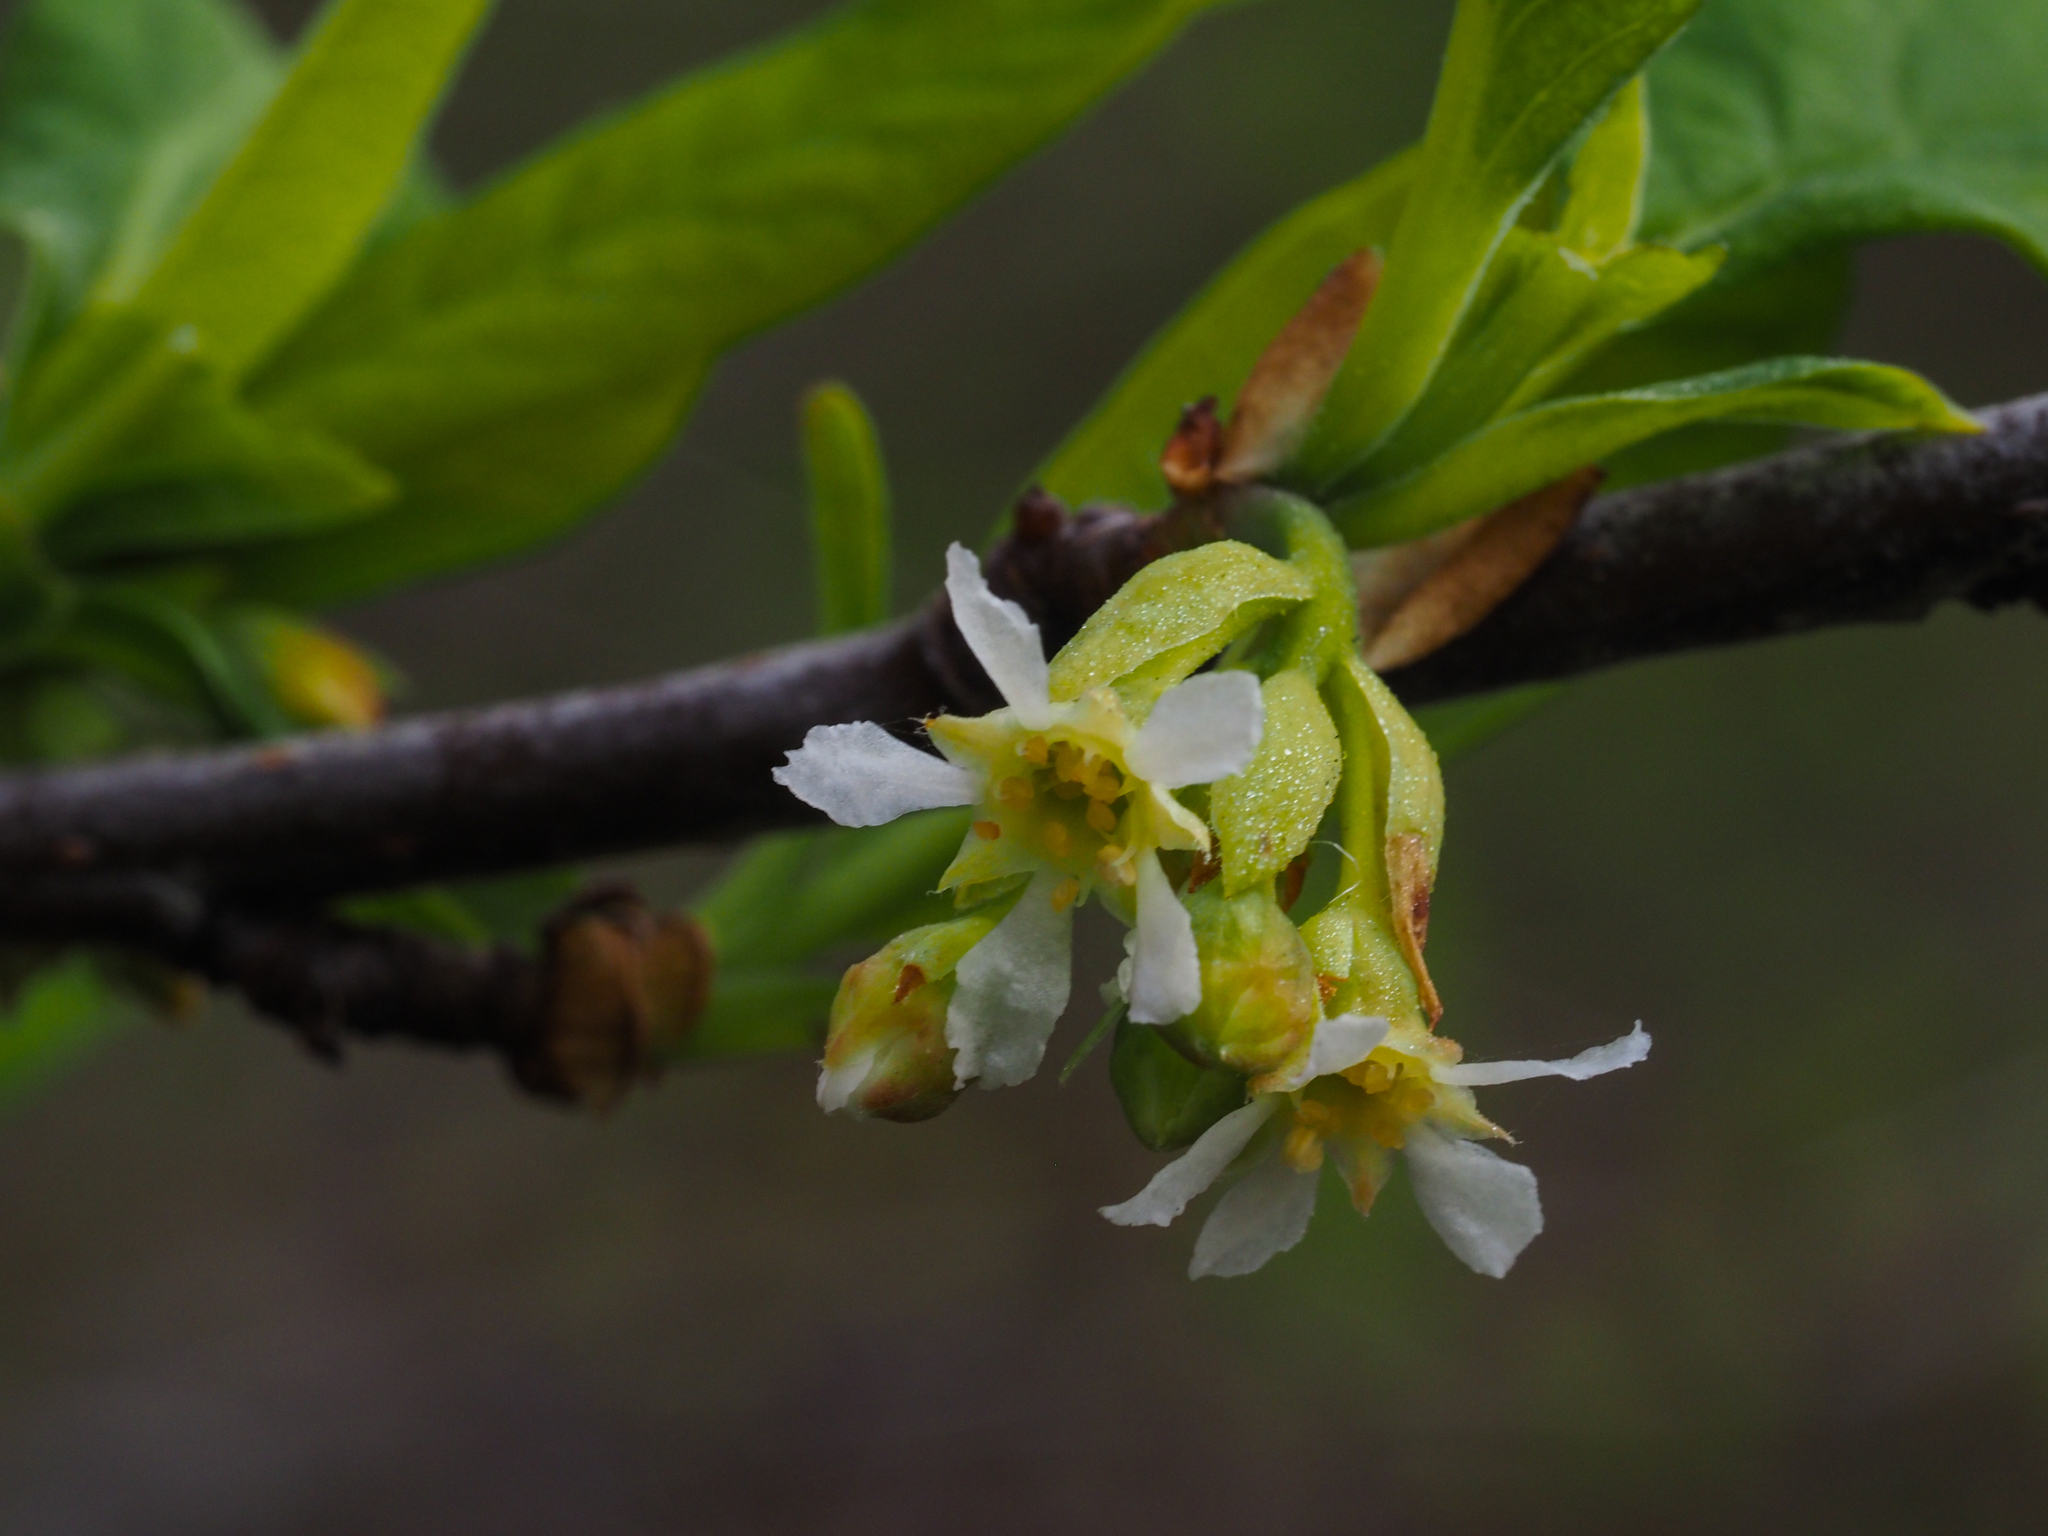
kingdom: Plantae
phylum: Tracheophyta
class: Magnoliopsida
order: Rosales
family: Rosaceae
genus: Oemleria
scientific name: Oemleria cerasiformis
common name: Osoberry
